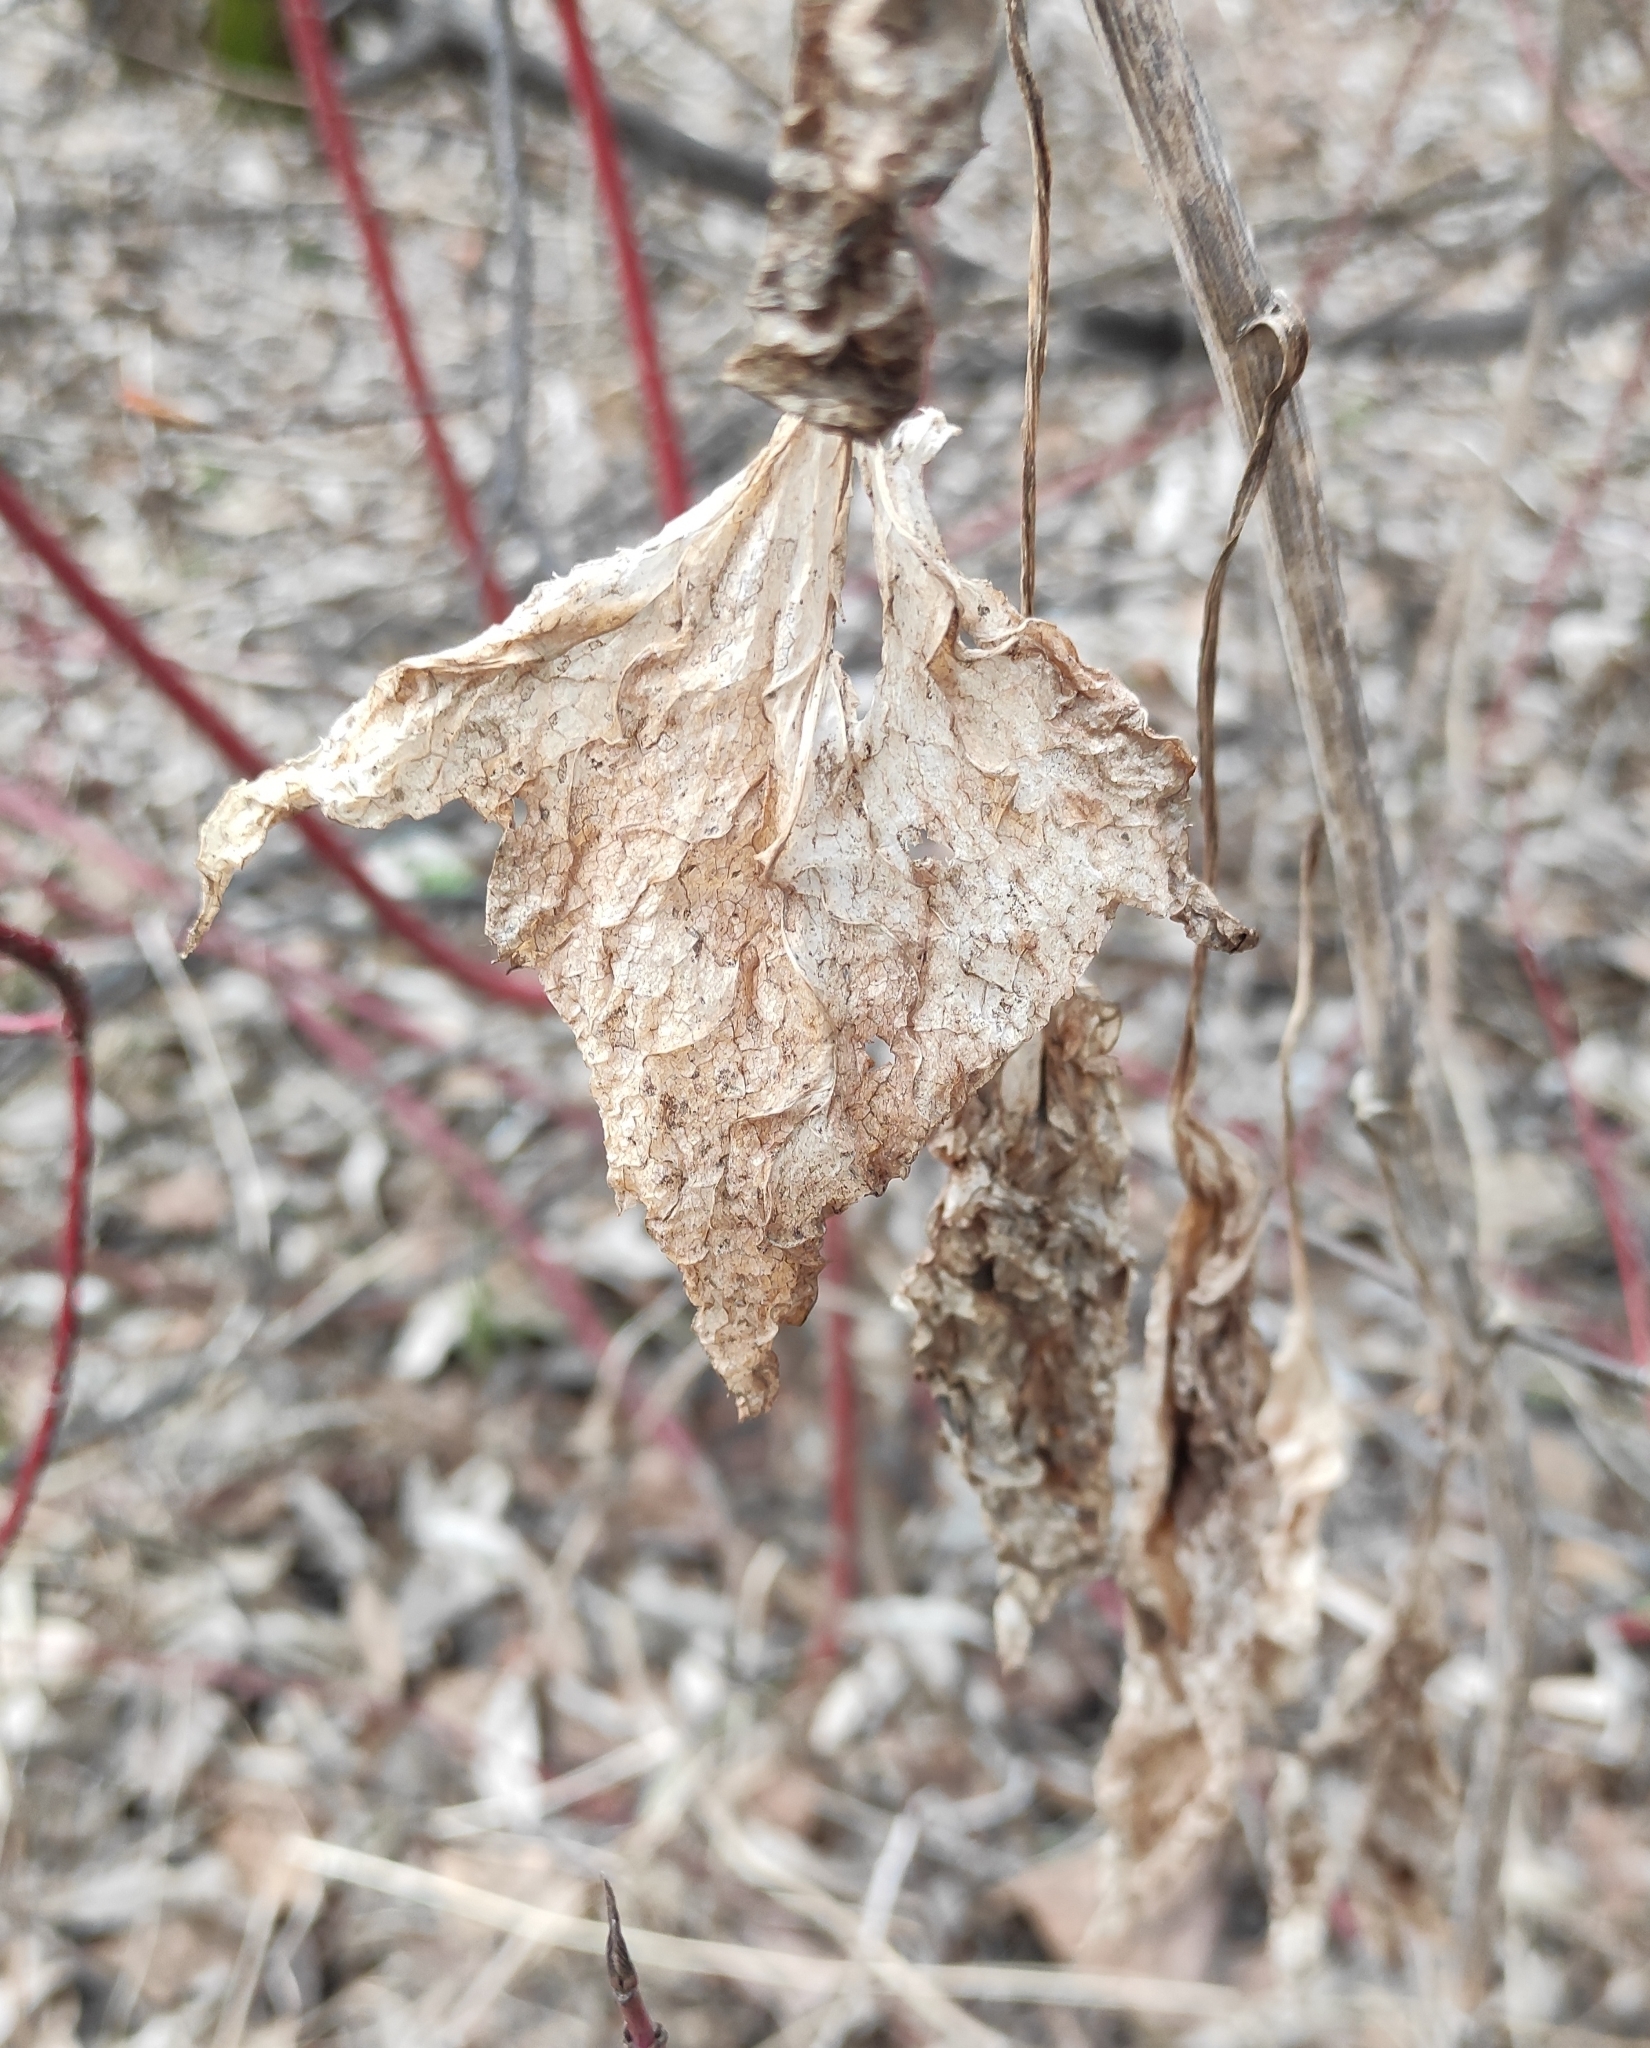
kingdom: Plantae
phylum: Tracheophyta
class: Magnoliopsida
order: Asterales
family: Asteraceae
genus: Parasenecio
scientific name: Parasenecio hastatus
